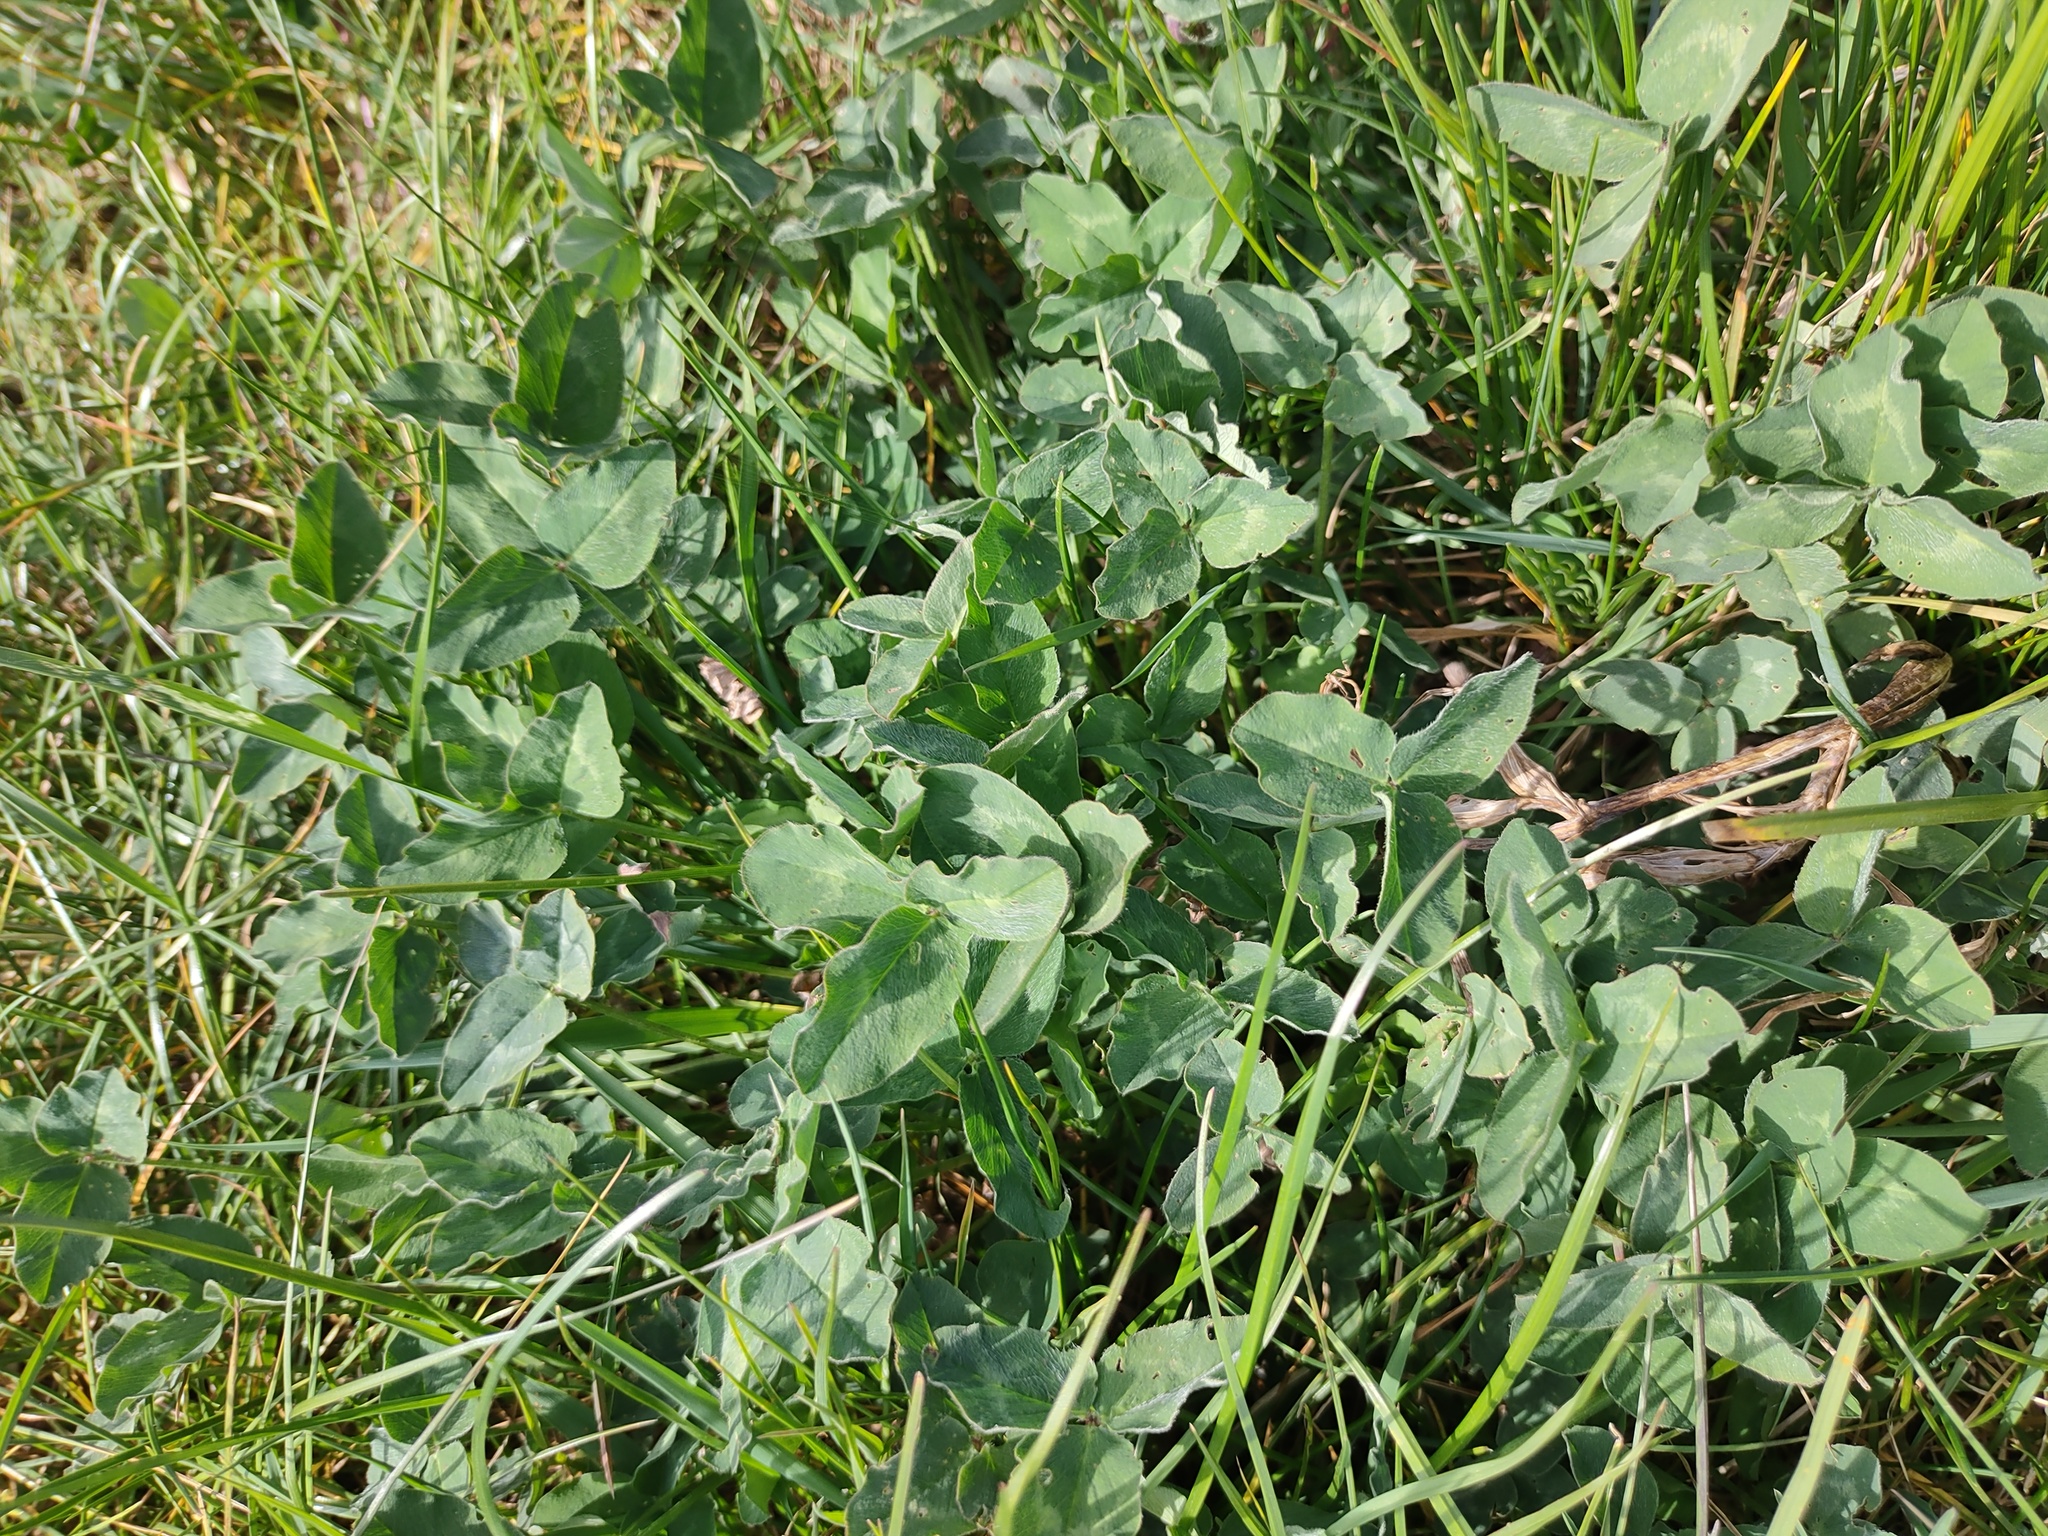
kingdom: Plantae
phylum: Tracheophyta
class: Magnoliopsida
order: Fabales
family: Fabaceae
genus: Trifolium
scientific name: Trifolium pratense
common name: Red clover
